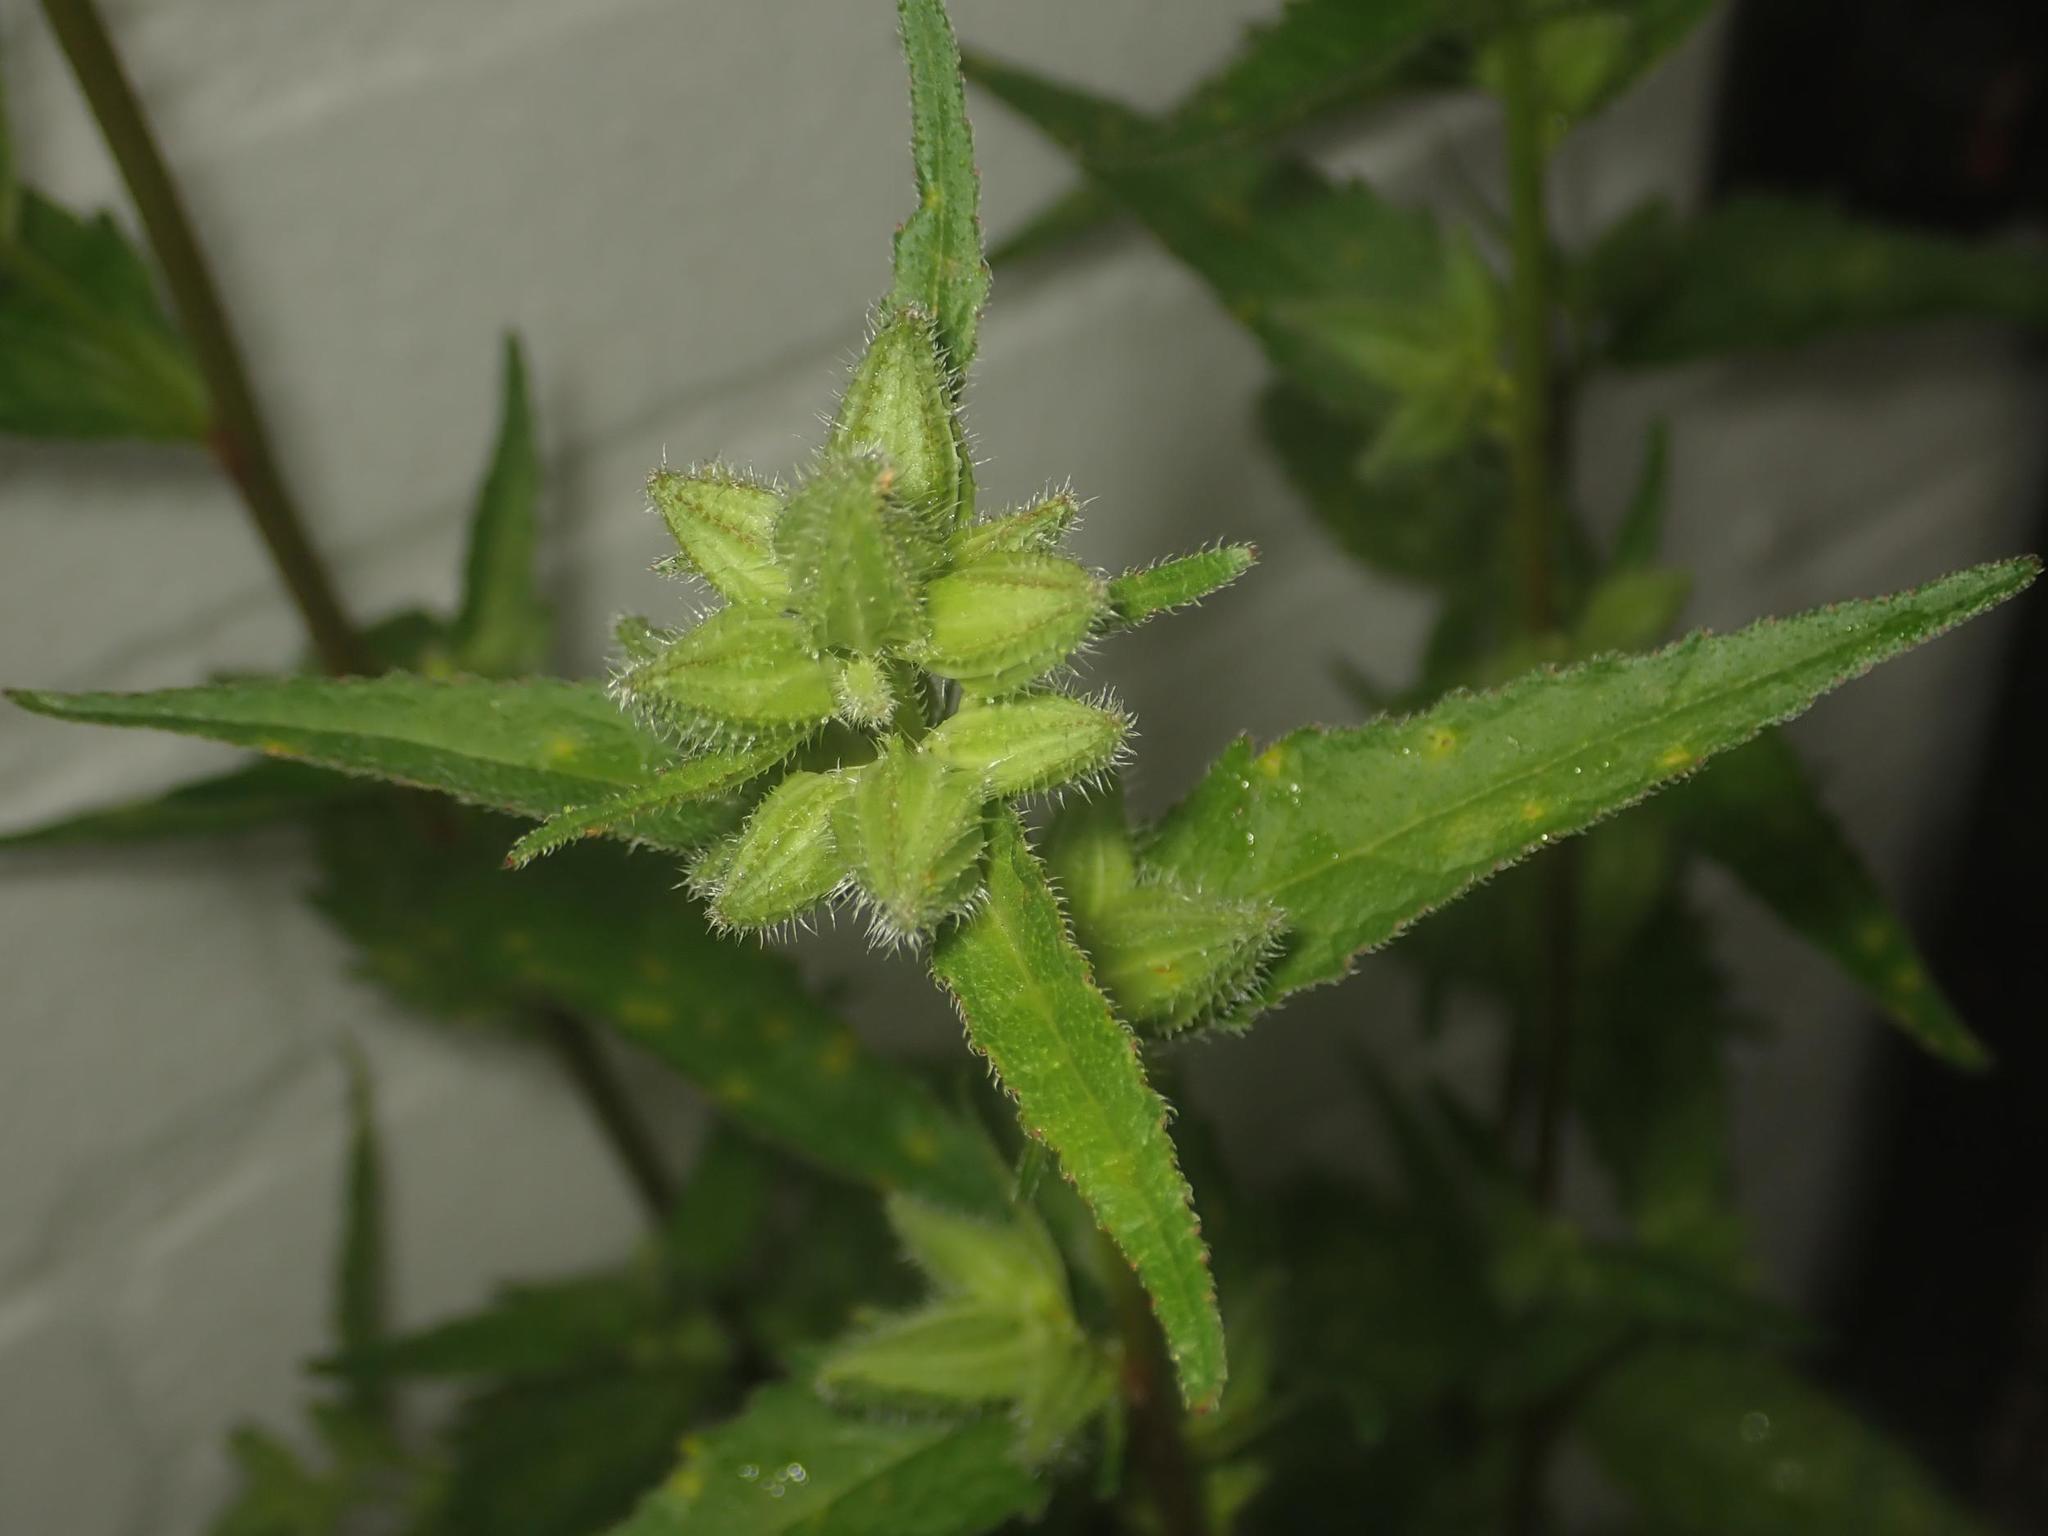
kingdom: Plantae
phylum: Tracheophyta
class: Magnoliopsida
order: Asterales
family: Campanulaceae
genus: Campanula
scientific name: Campanula trachelium
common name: Nettle-leaved bellflower
